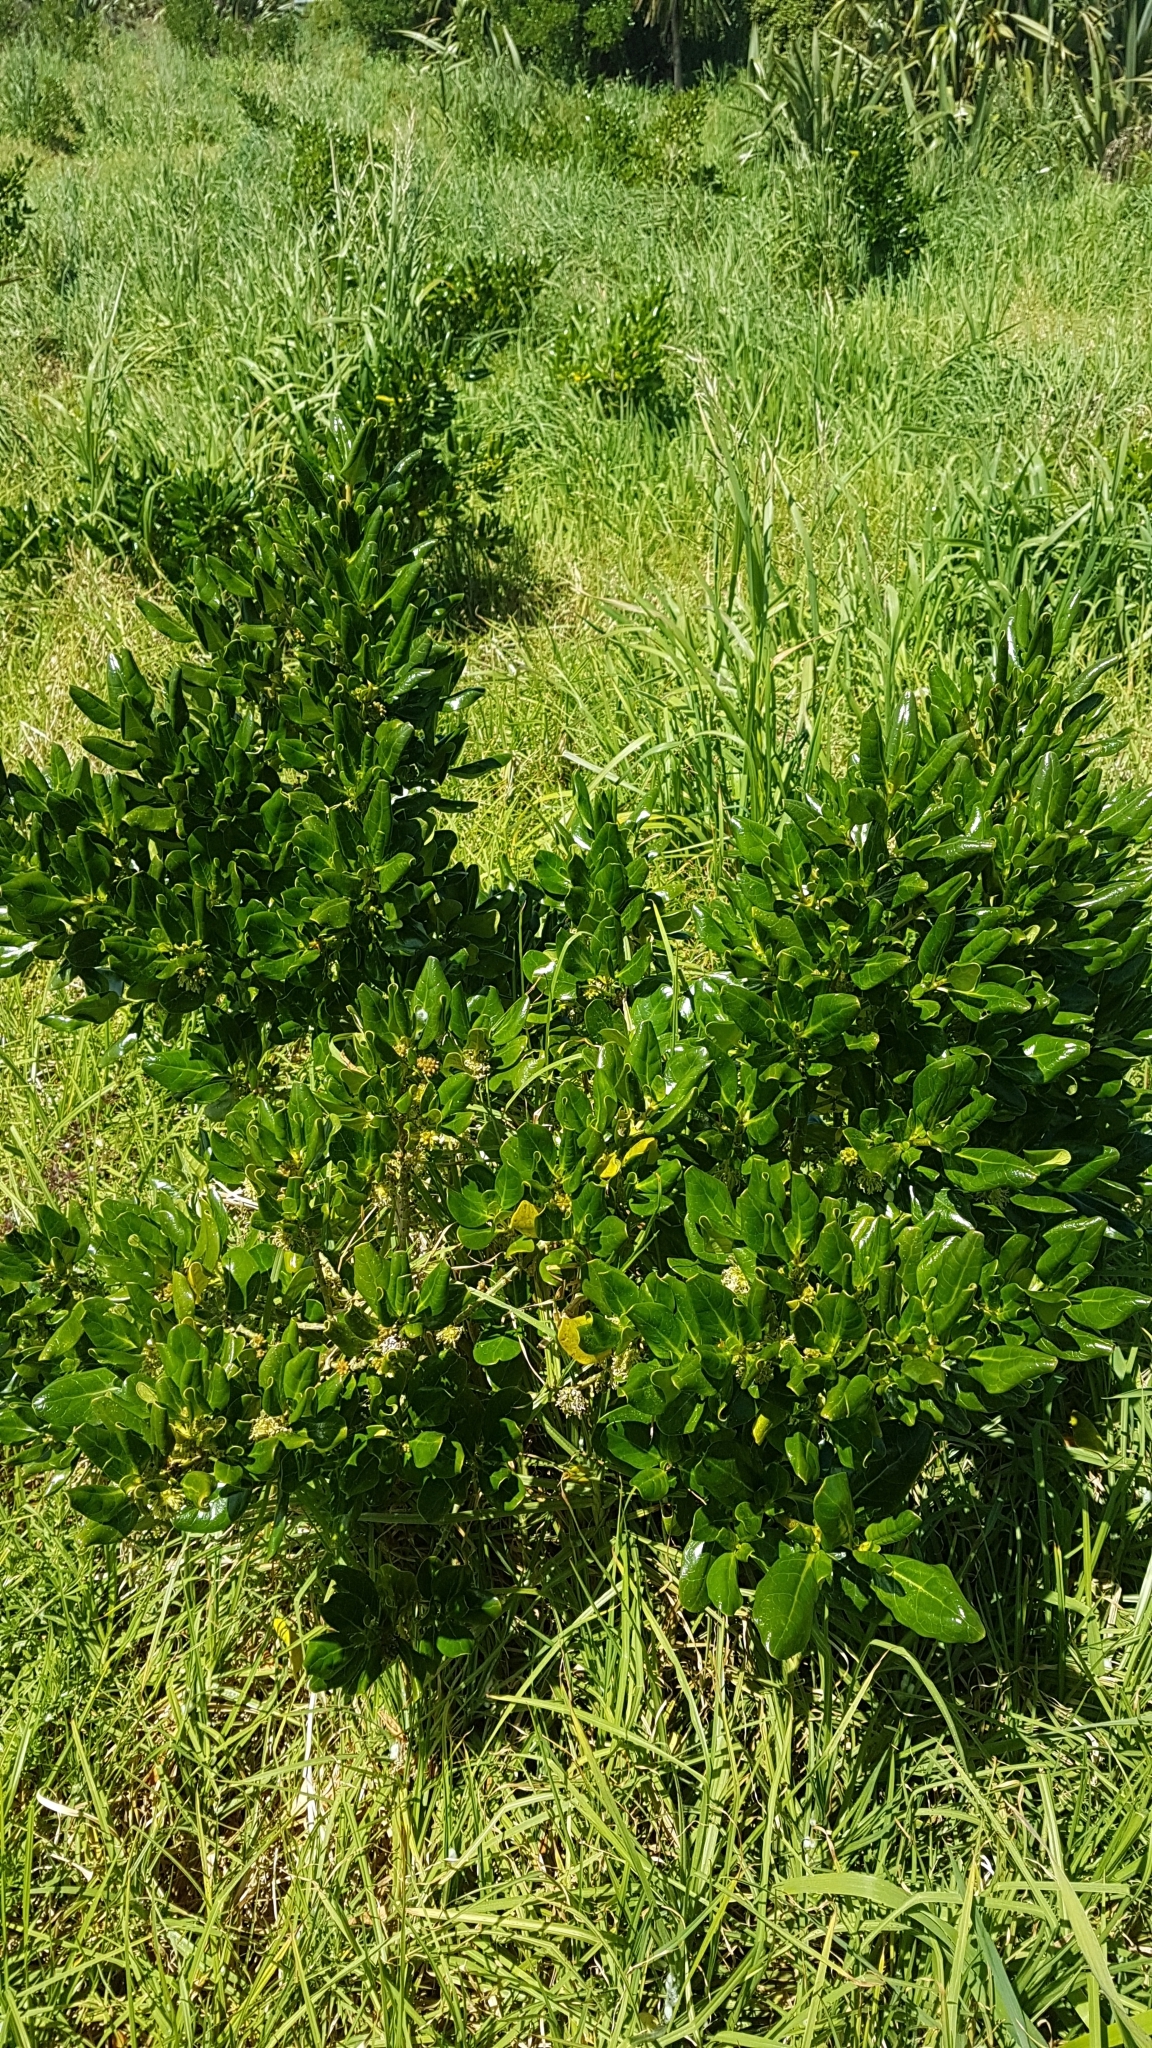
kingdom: Plantae
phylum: Tracheophyta
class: Magnoliopsida
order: Gentianales
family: Rubiaceae
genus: Coprosma
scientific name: Coprosma repens
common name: Tree bedstraw
